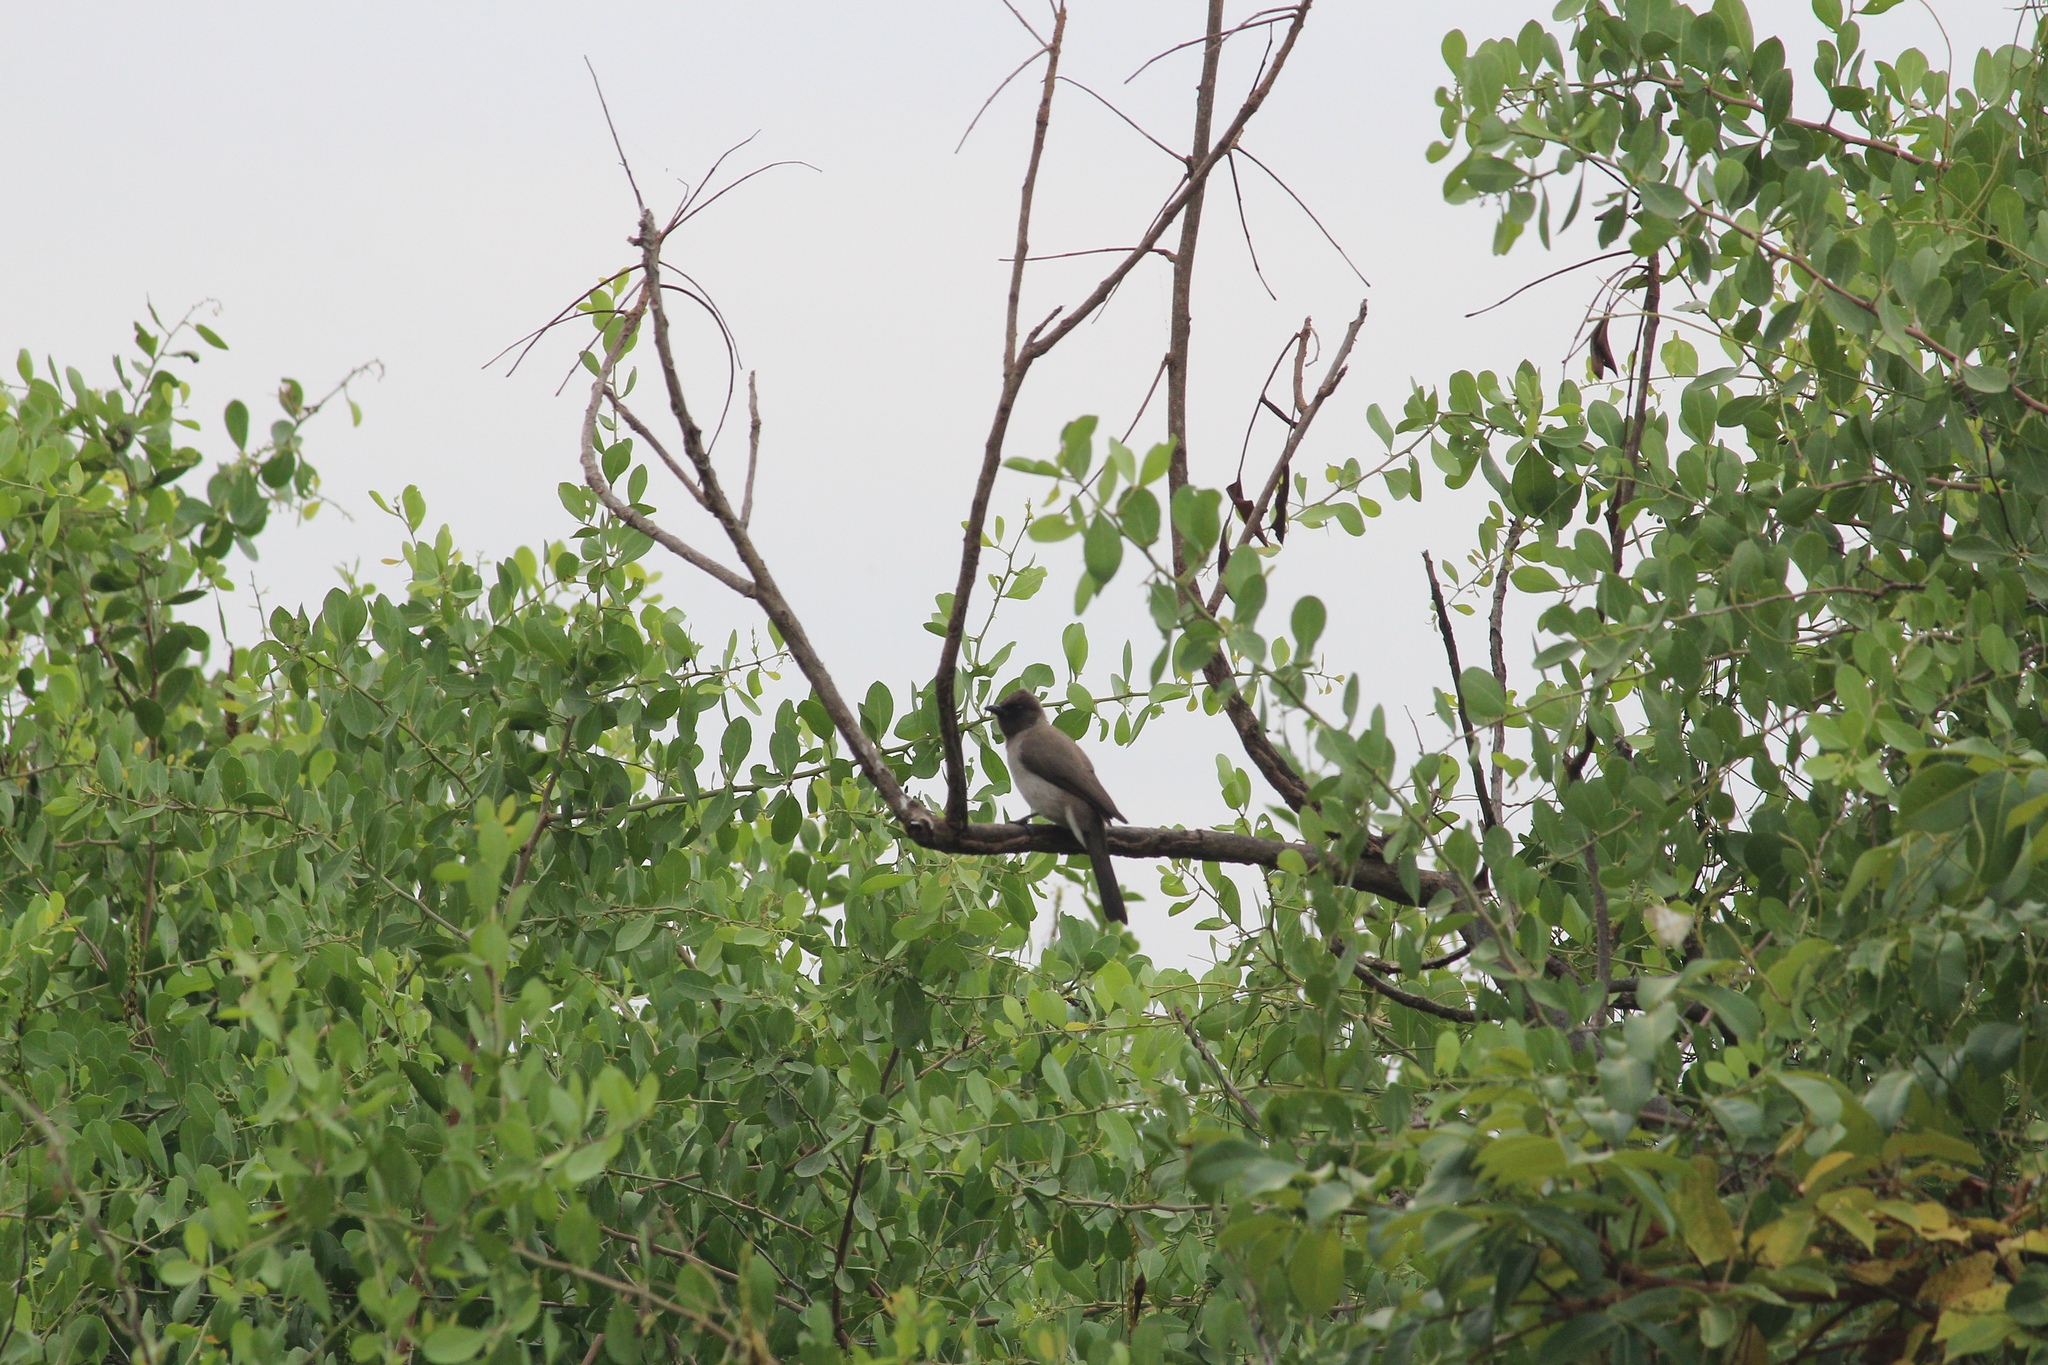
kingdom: Animalia
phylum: Chordata
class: Aves
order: Passeriformes
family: Pycnonotidae
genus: Pycnonotus
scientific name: Pycnonotus barbatus
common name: Common bulbul
